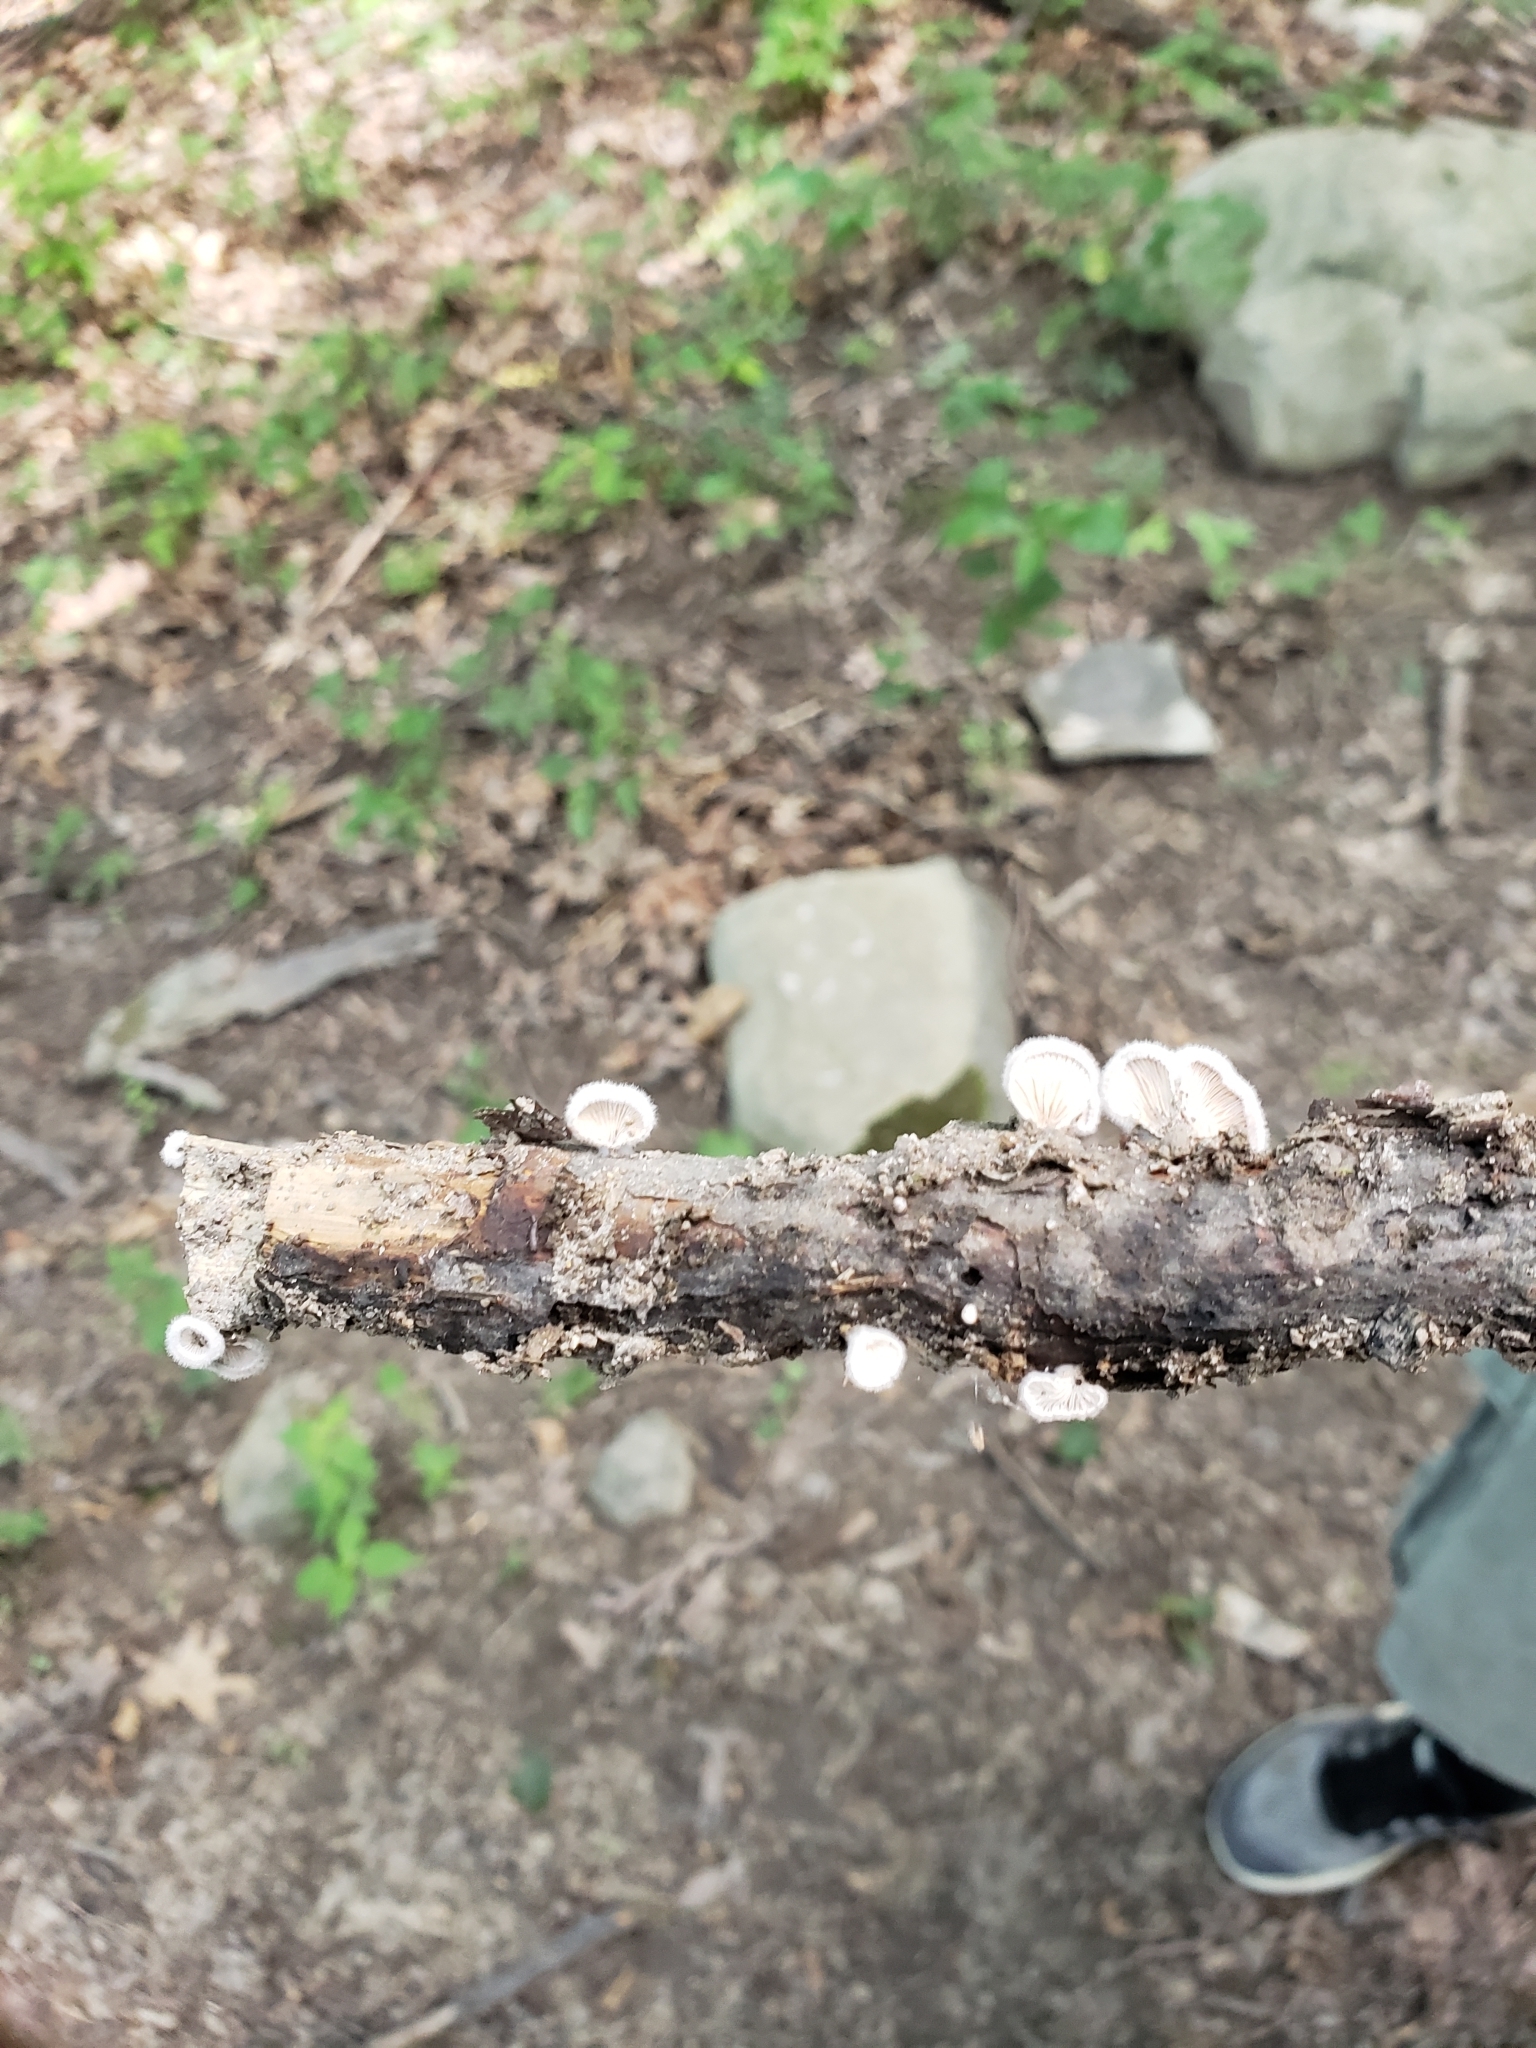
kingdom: Fungi
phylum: Basidiomycota
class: Agaricomycetes
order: Agaricales
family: Schizophyllaceae
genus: Schizophyllum
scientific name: Schizophyllum commune
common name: Common porecrust
